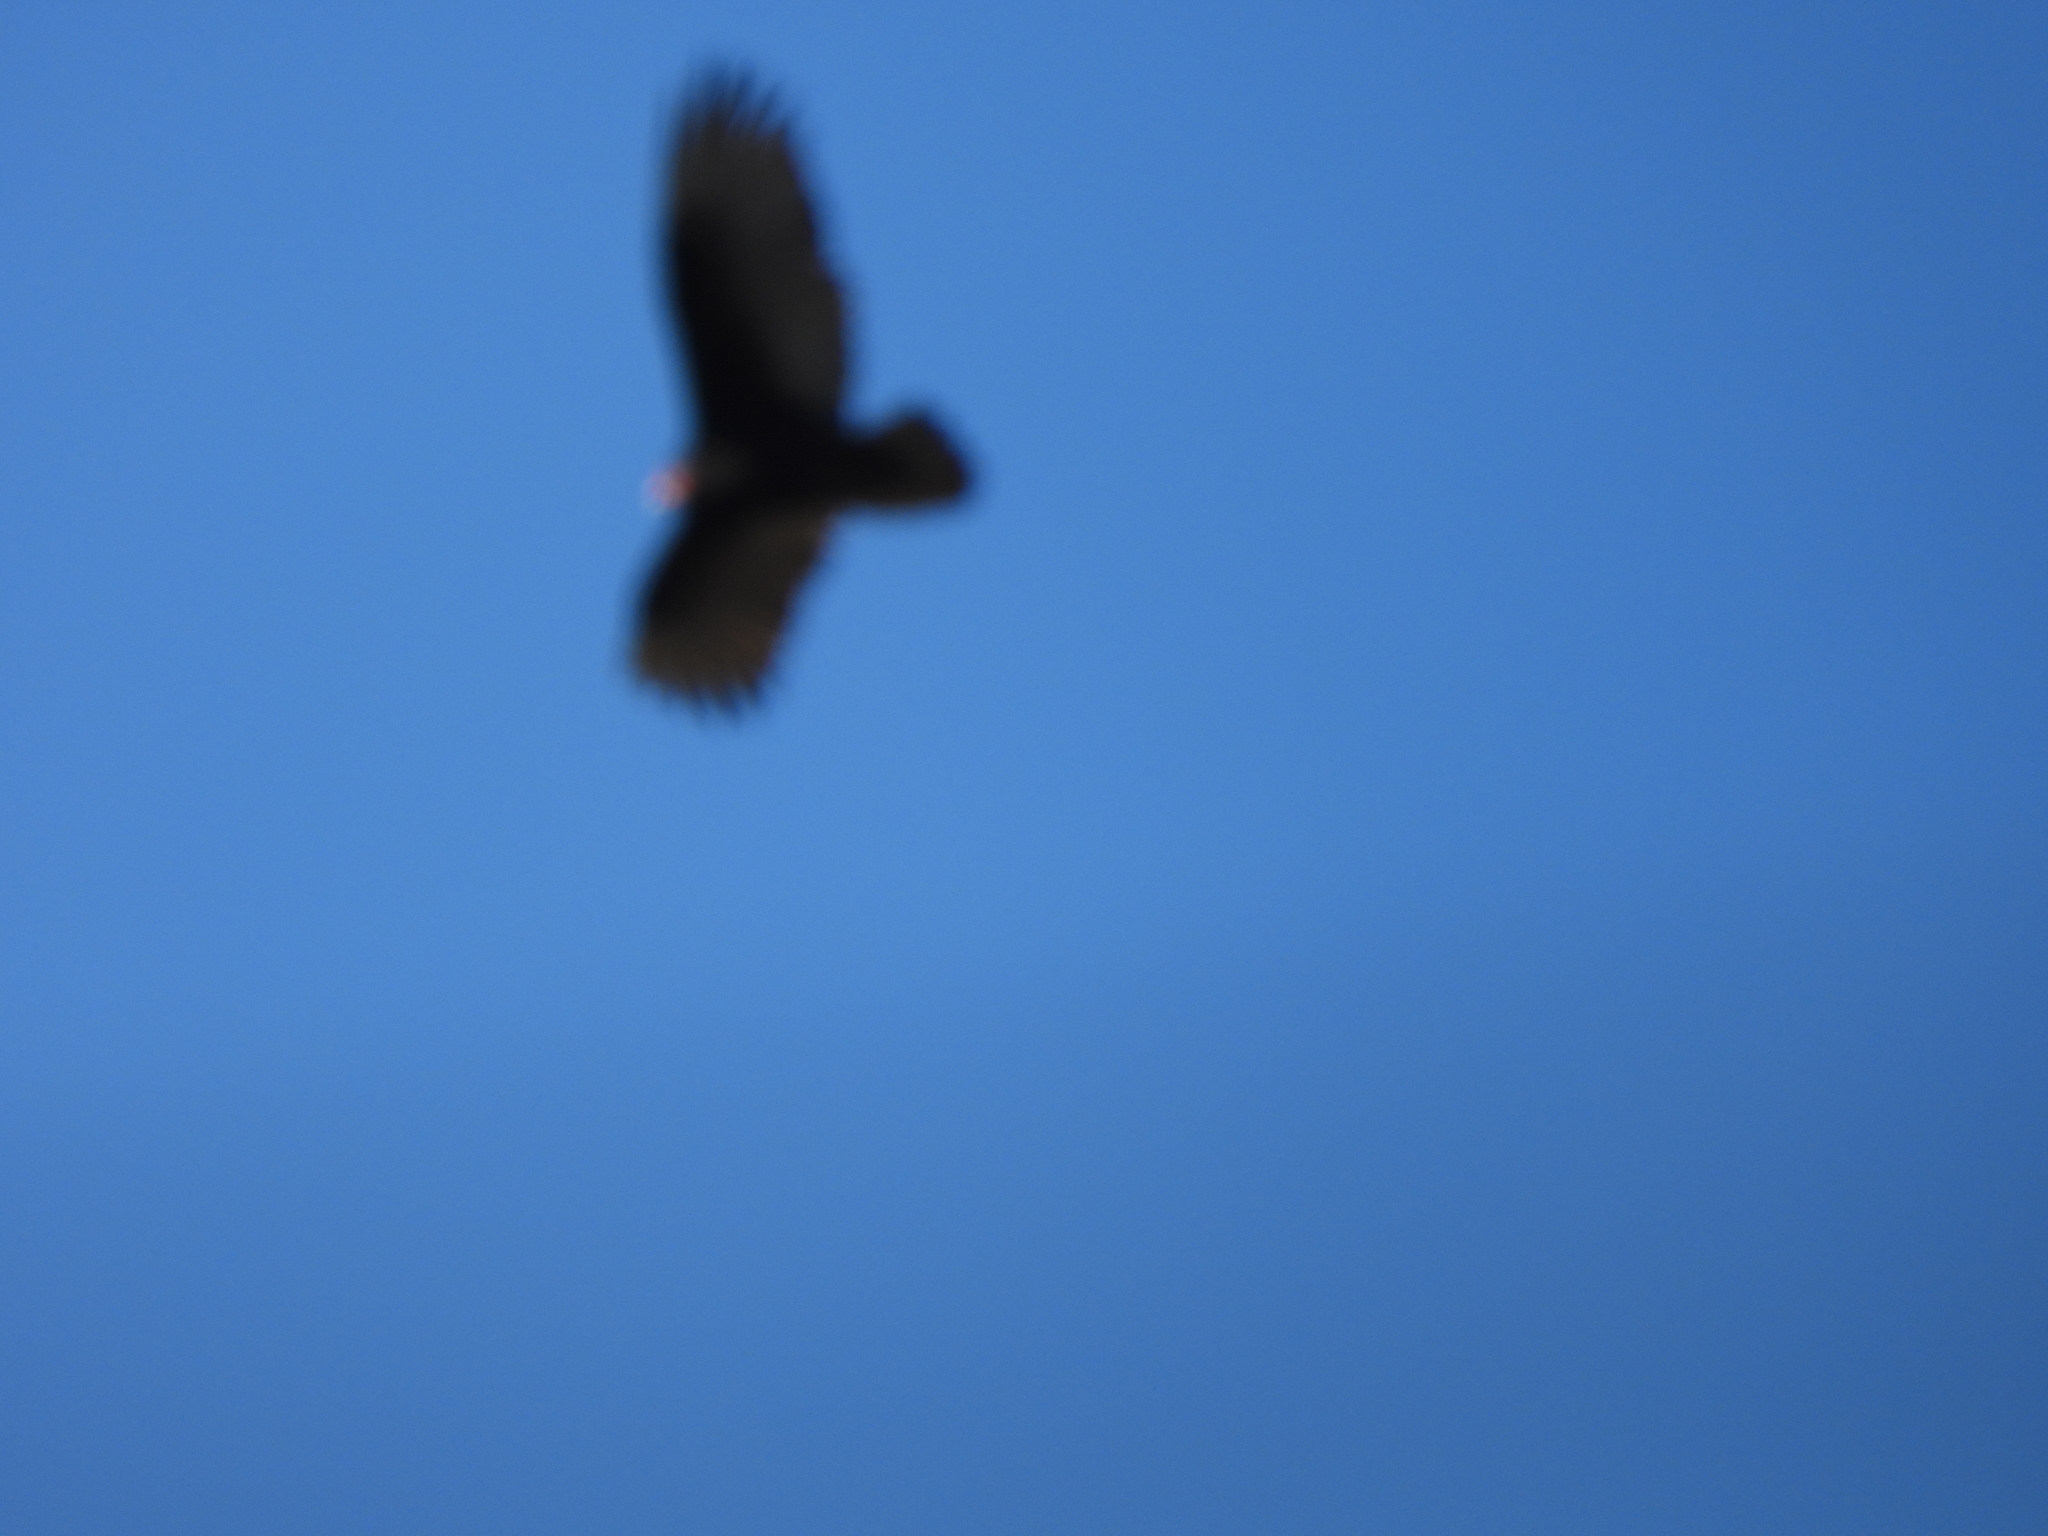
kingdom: Animalia
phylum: Chordata
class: Aves
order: Accipitriformes
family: Cathartidae
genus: Cathartes
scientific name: Cathartes aura
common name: Turkey vulture
